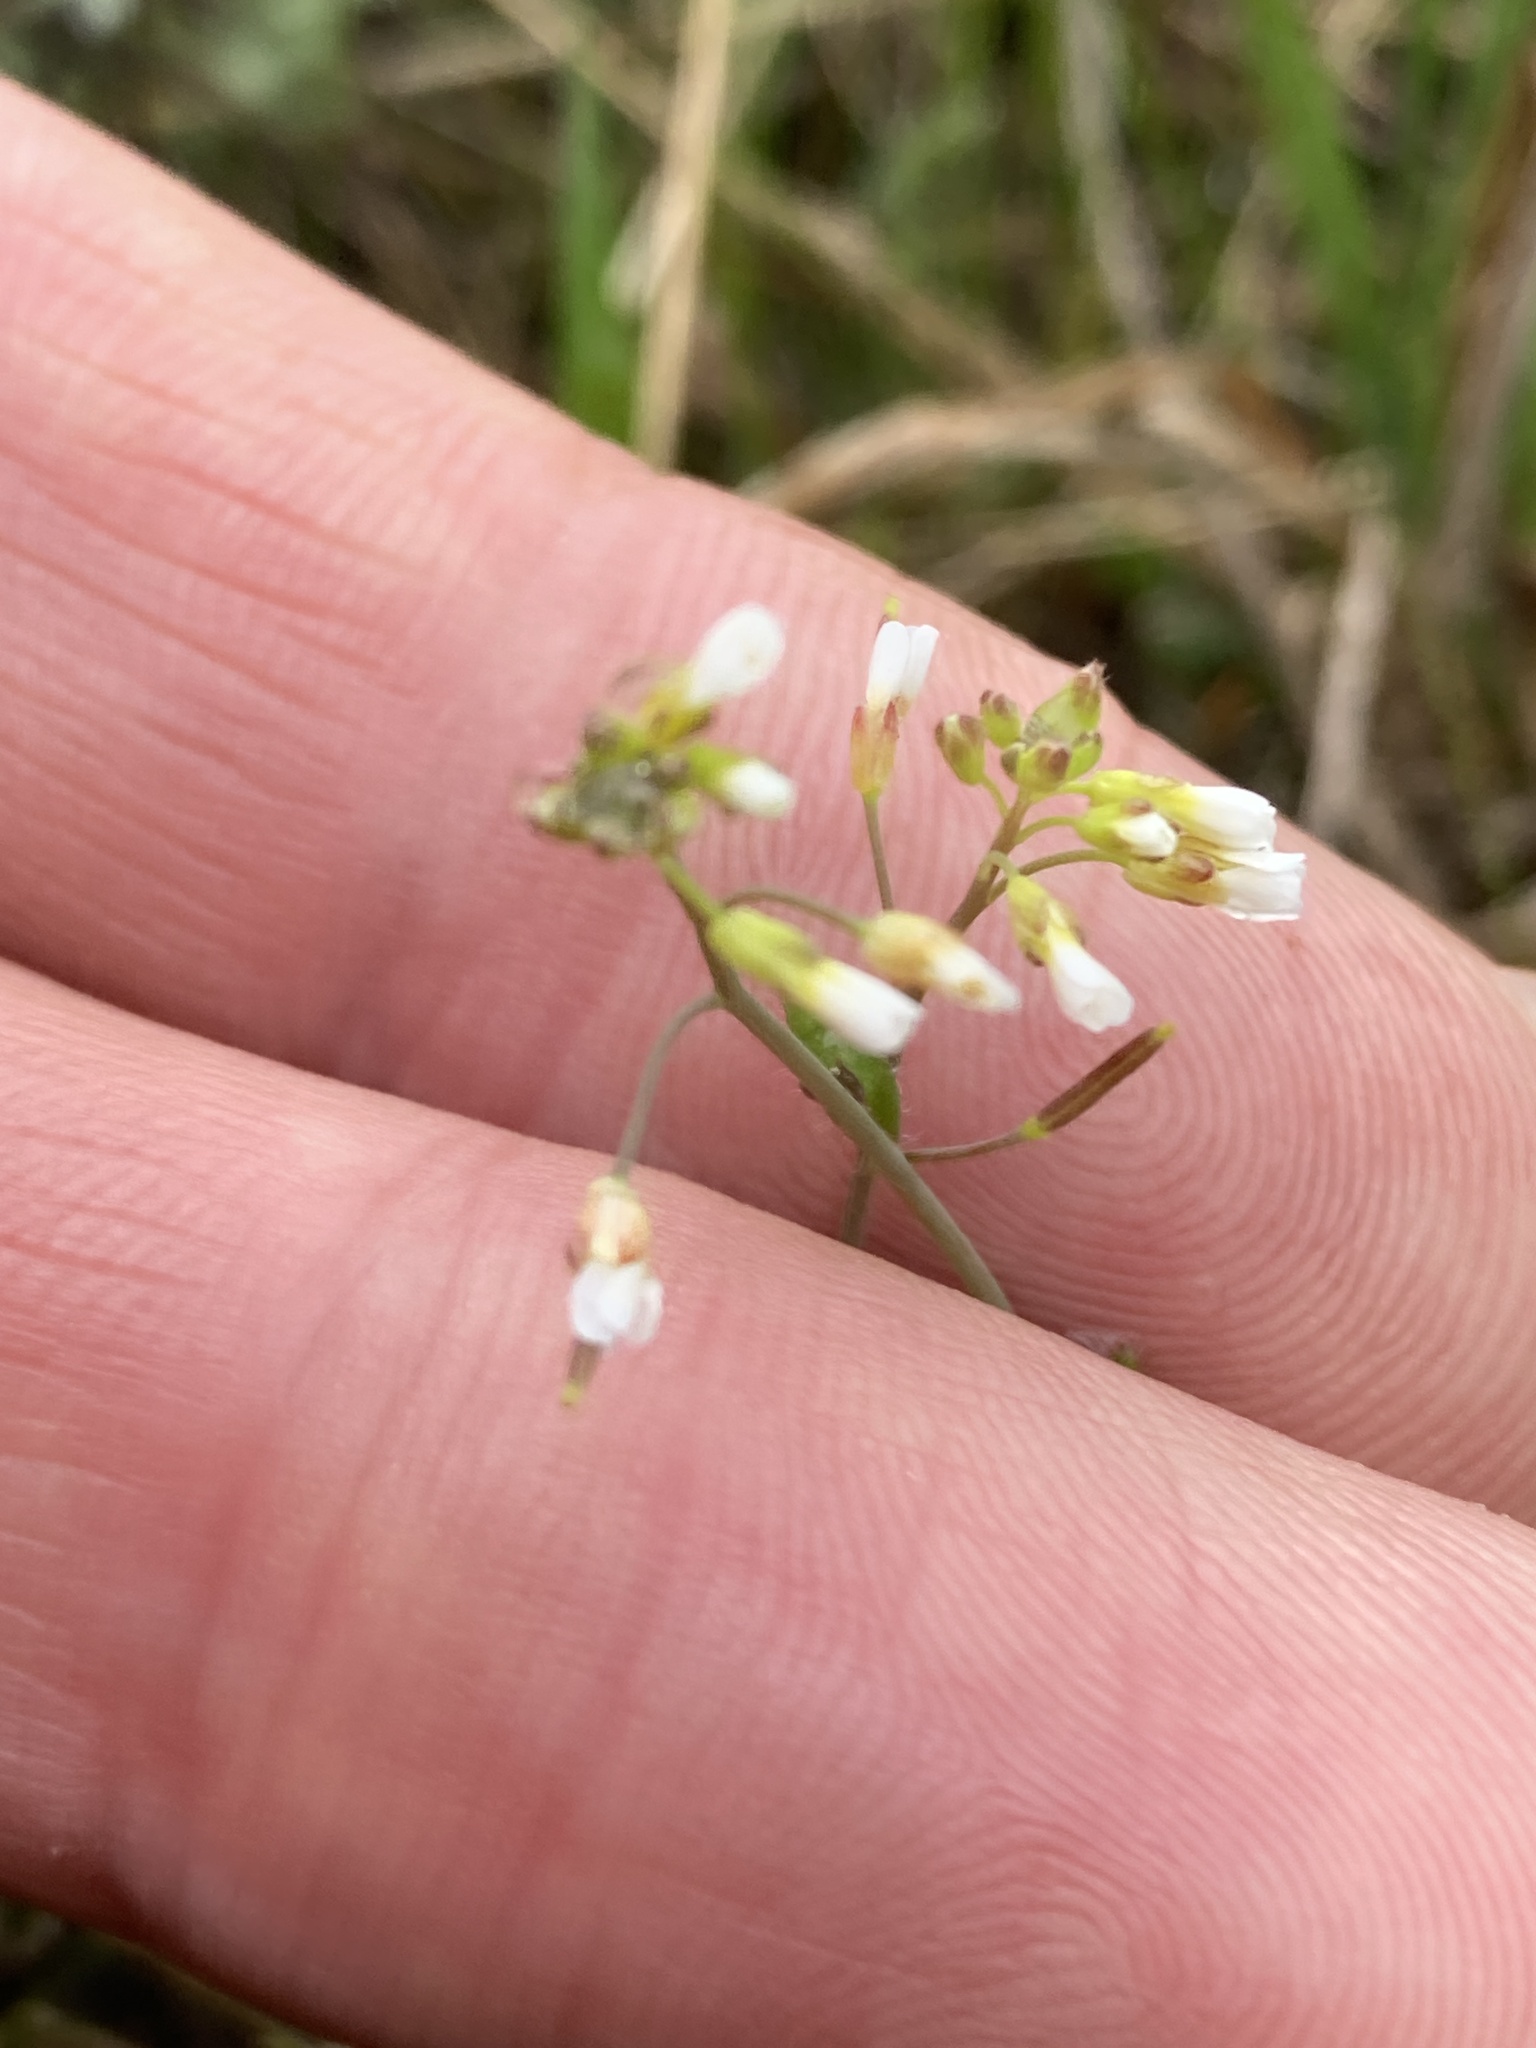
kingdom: Plantae
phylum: Tracheophyta
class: Magnoliopsida
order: Brassicales
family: Brassicaceae
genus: Arabidopsis
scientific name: Arabidopsis thaliana
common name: Thale cress
